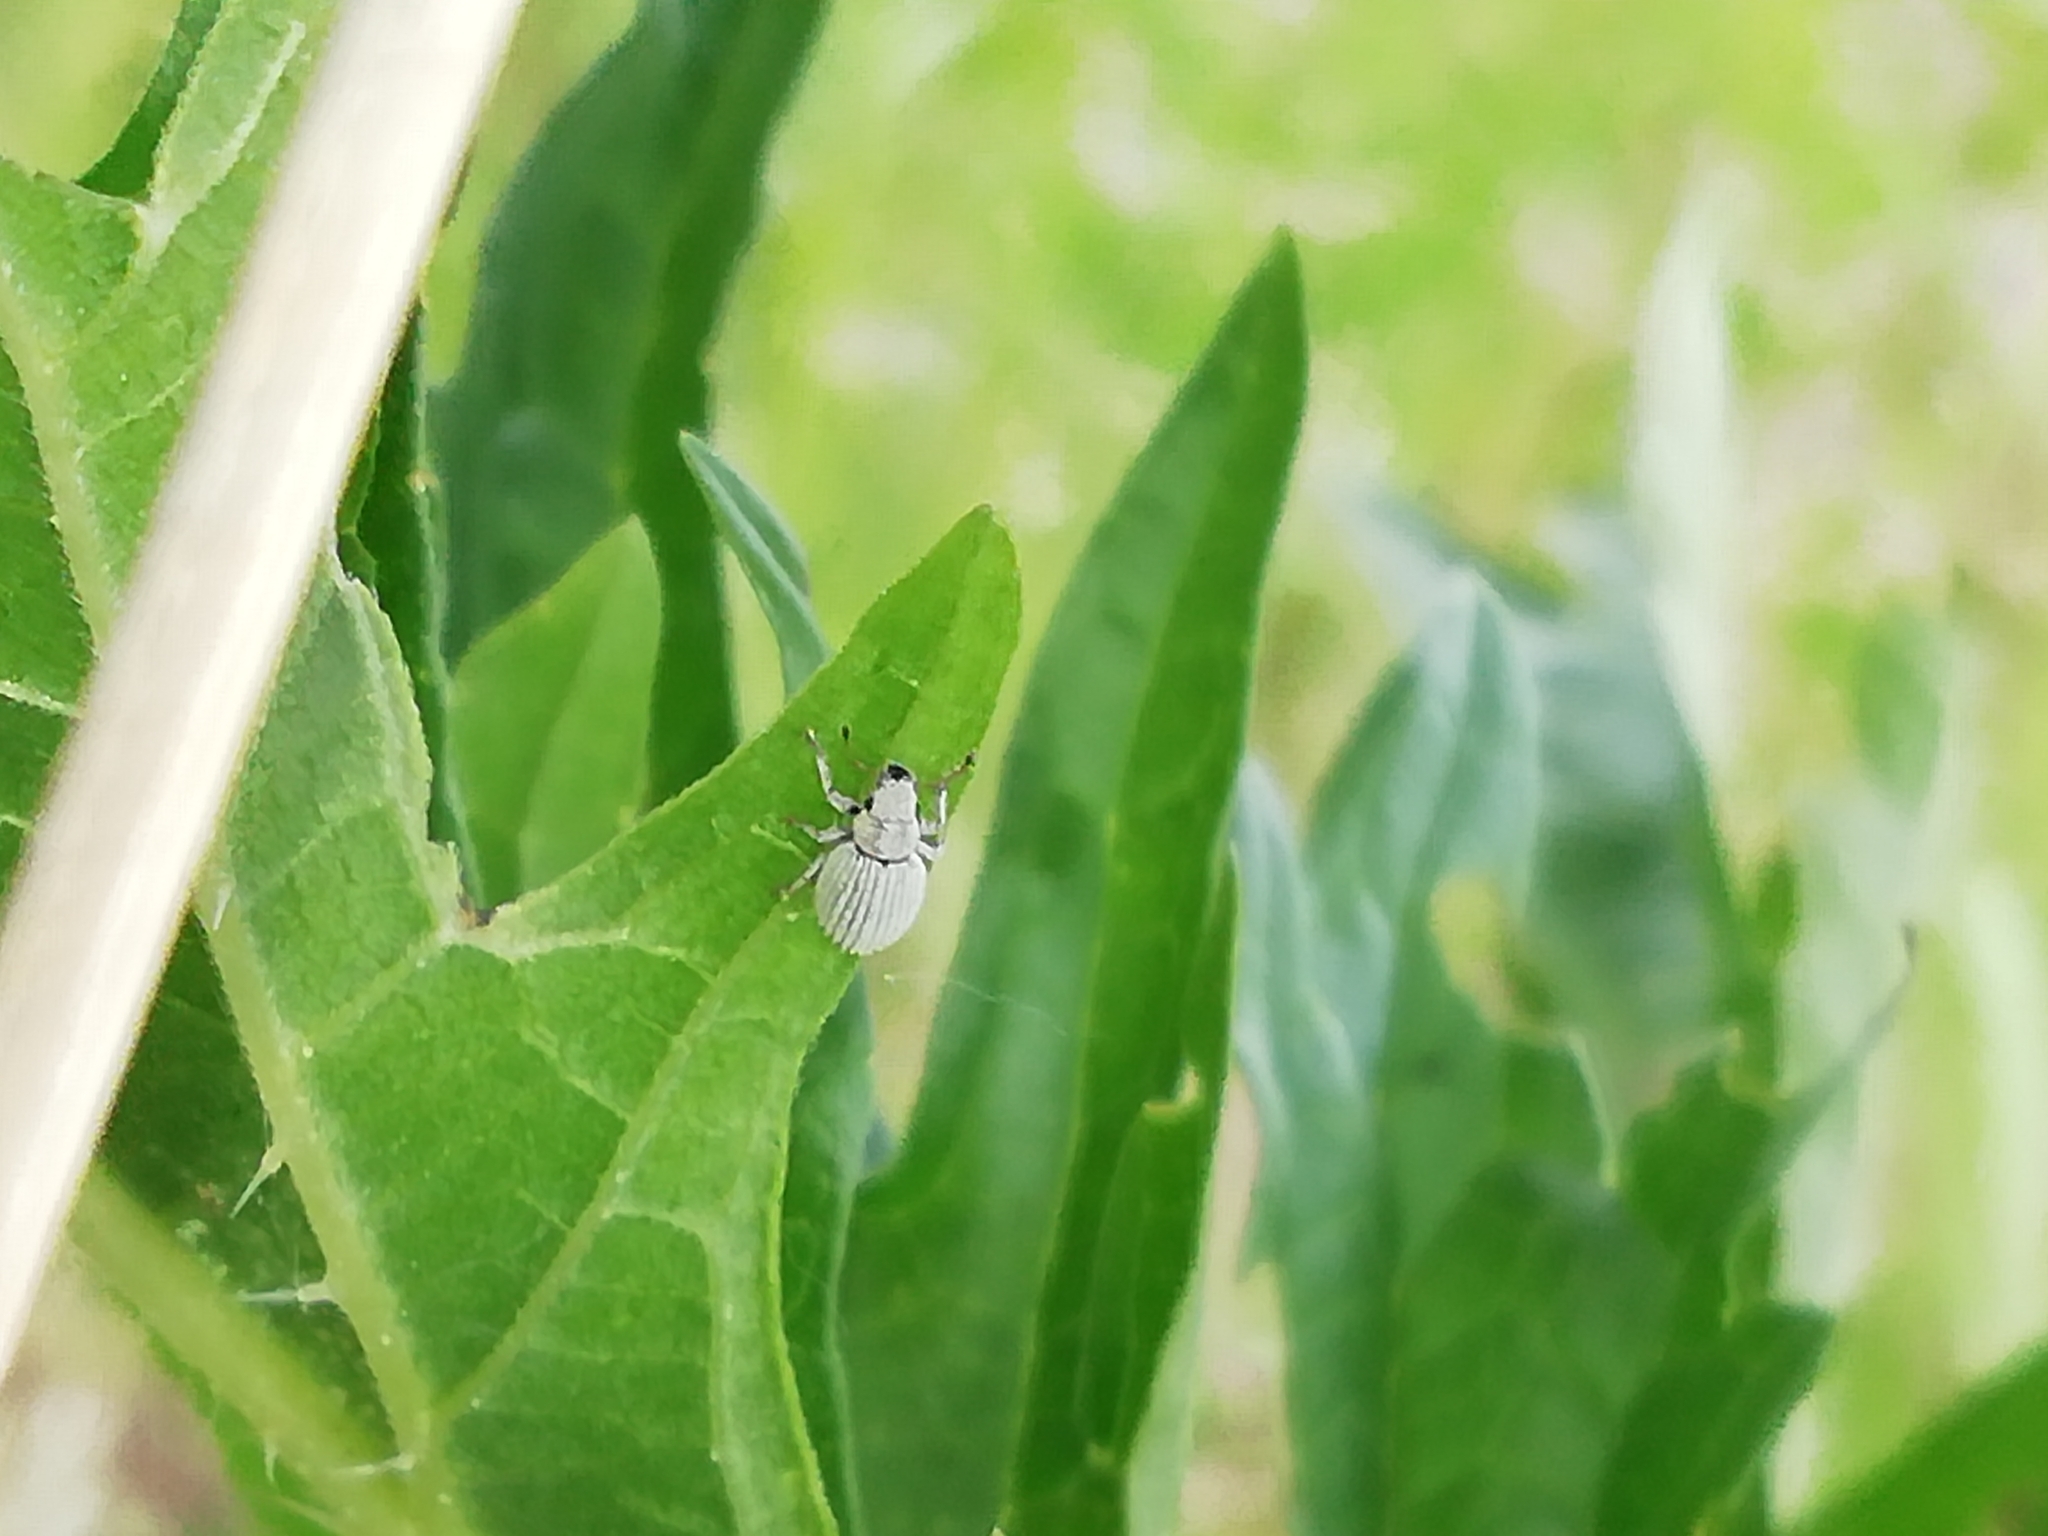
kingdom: Animalia
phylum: Arthropoda
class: Insecta
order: Coleoptera
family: Curculionidae
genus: Foucartia
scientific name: Foucartia squamulata
